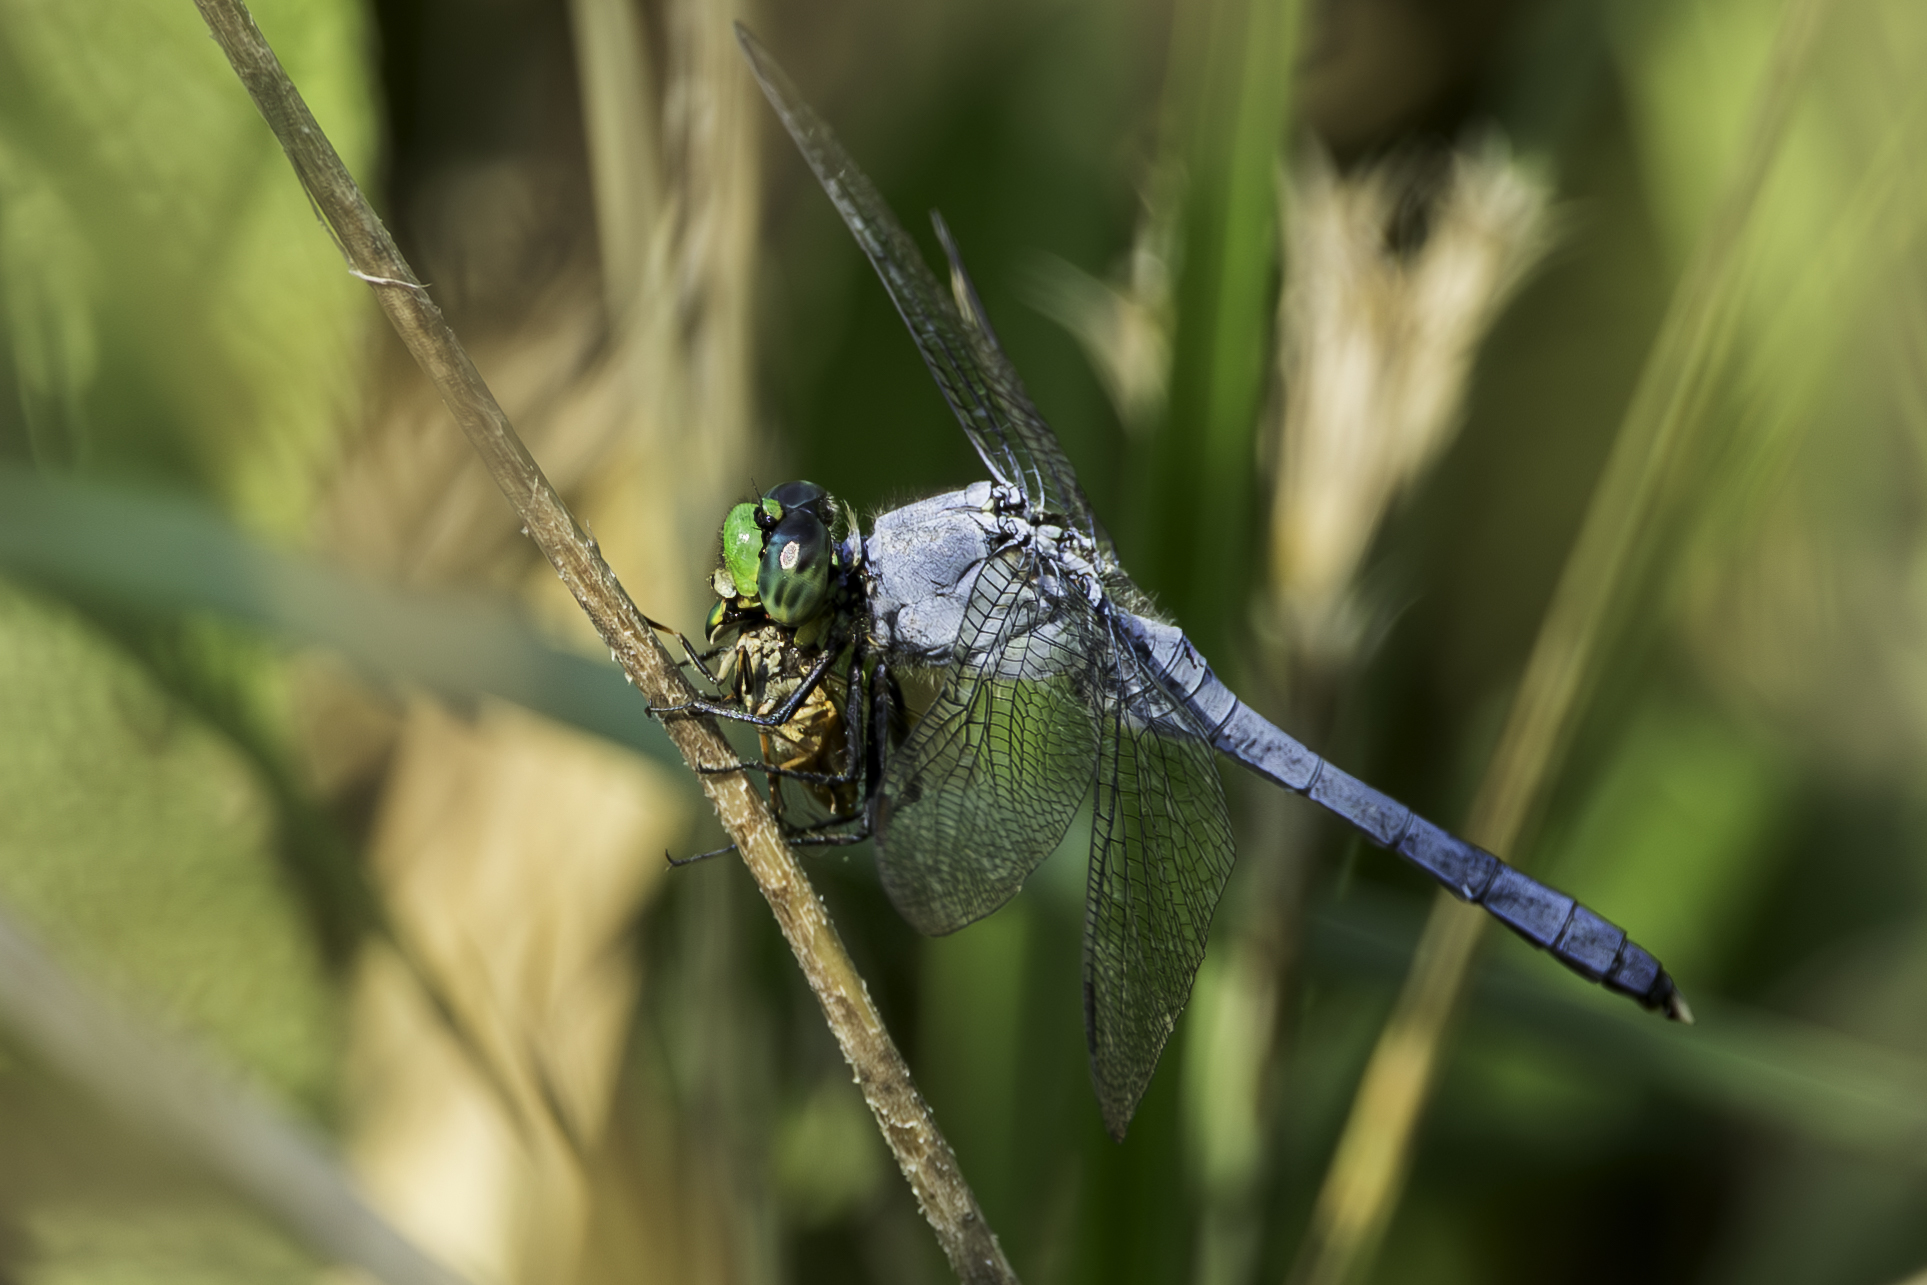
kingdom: Animalia
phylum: Arthropoda
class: Insecta
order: Odonata
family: Libellulidae
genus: Erythemis
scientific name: Erythemis simplicicollis
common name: Eastern pondhawk
